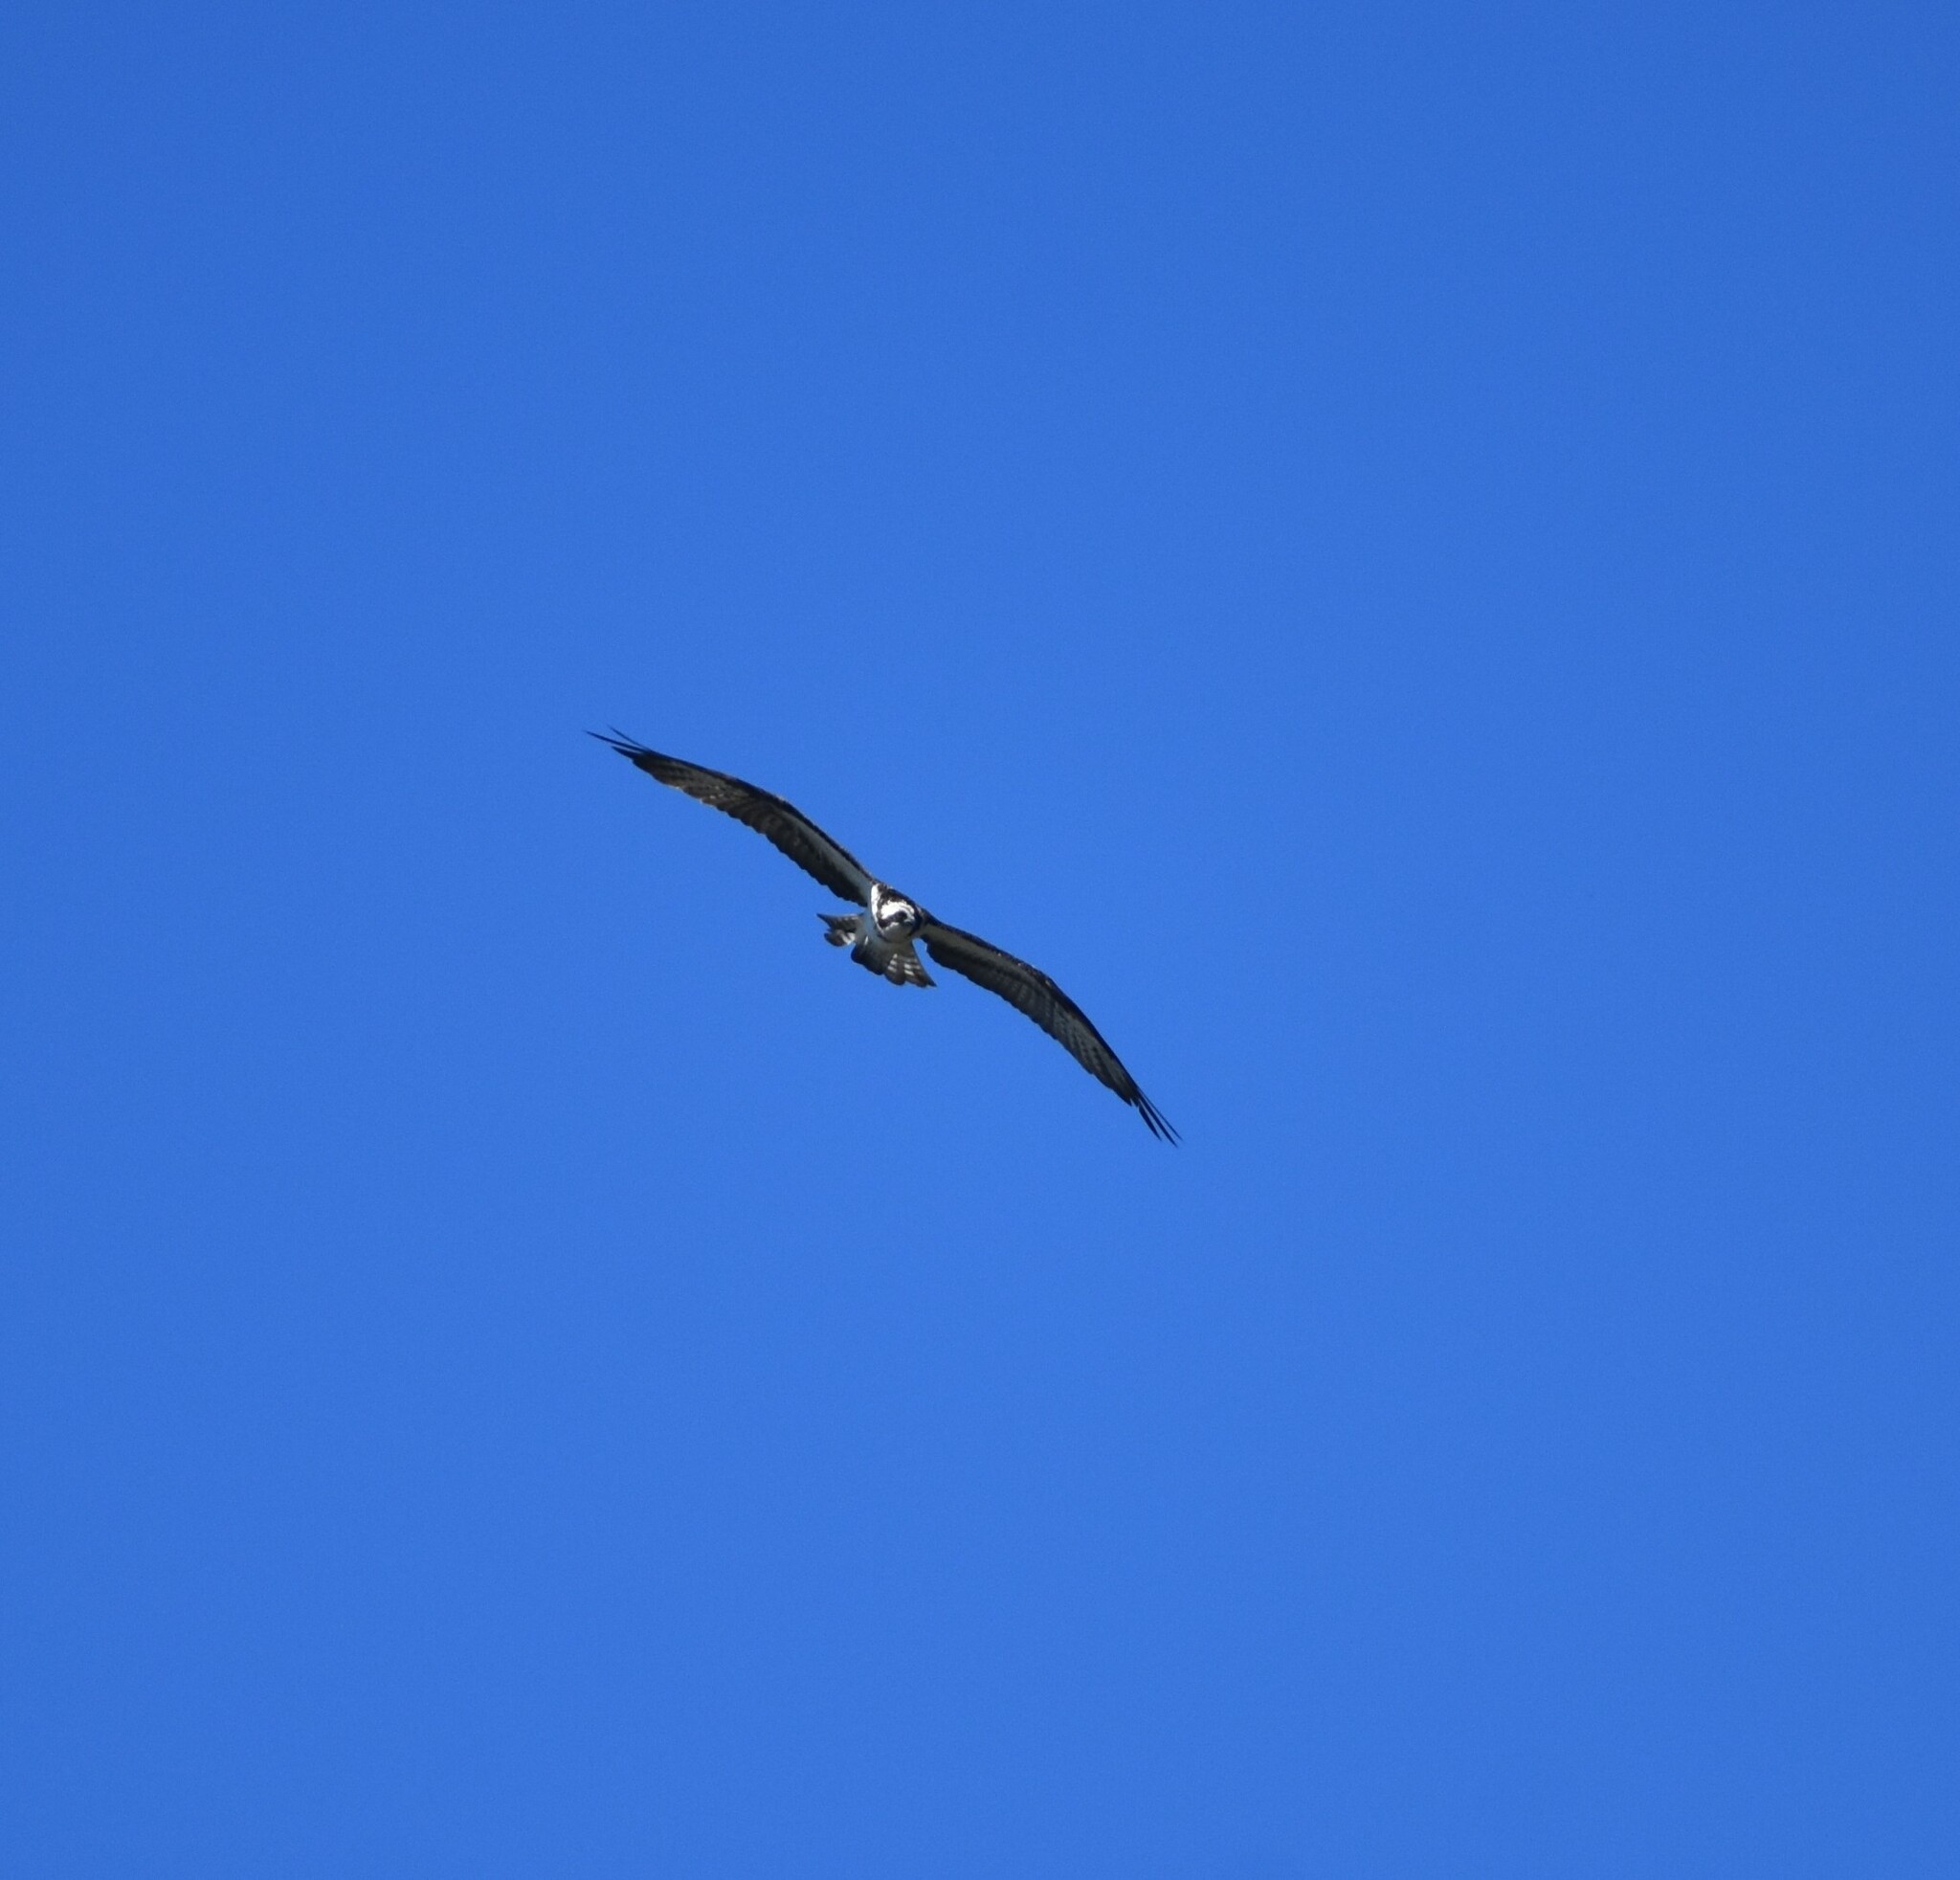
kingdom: Animalia
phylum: Chordata
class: Aves
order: Accipitriformes
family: Pandionidae
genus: Pandion
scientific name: Pandion haliaetus
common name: Osprey
